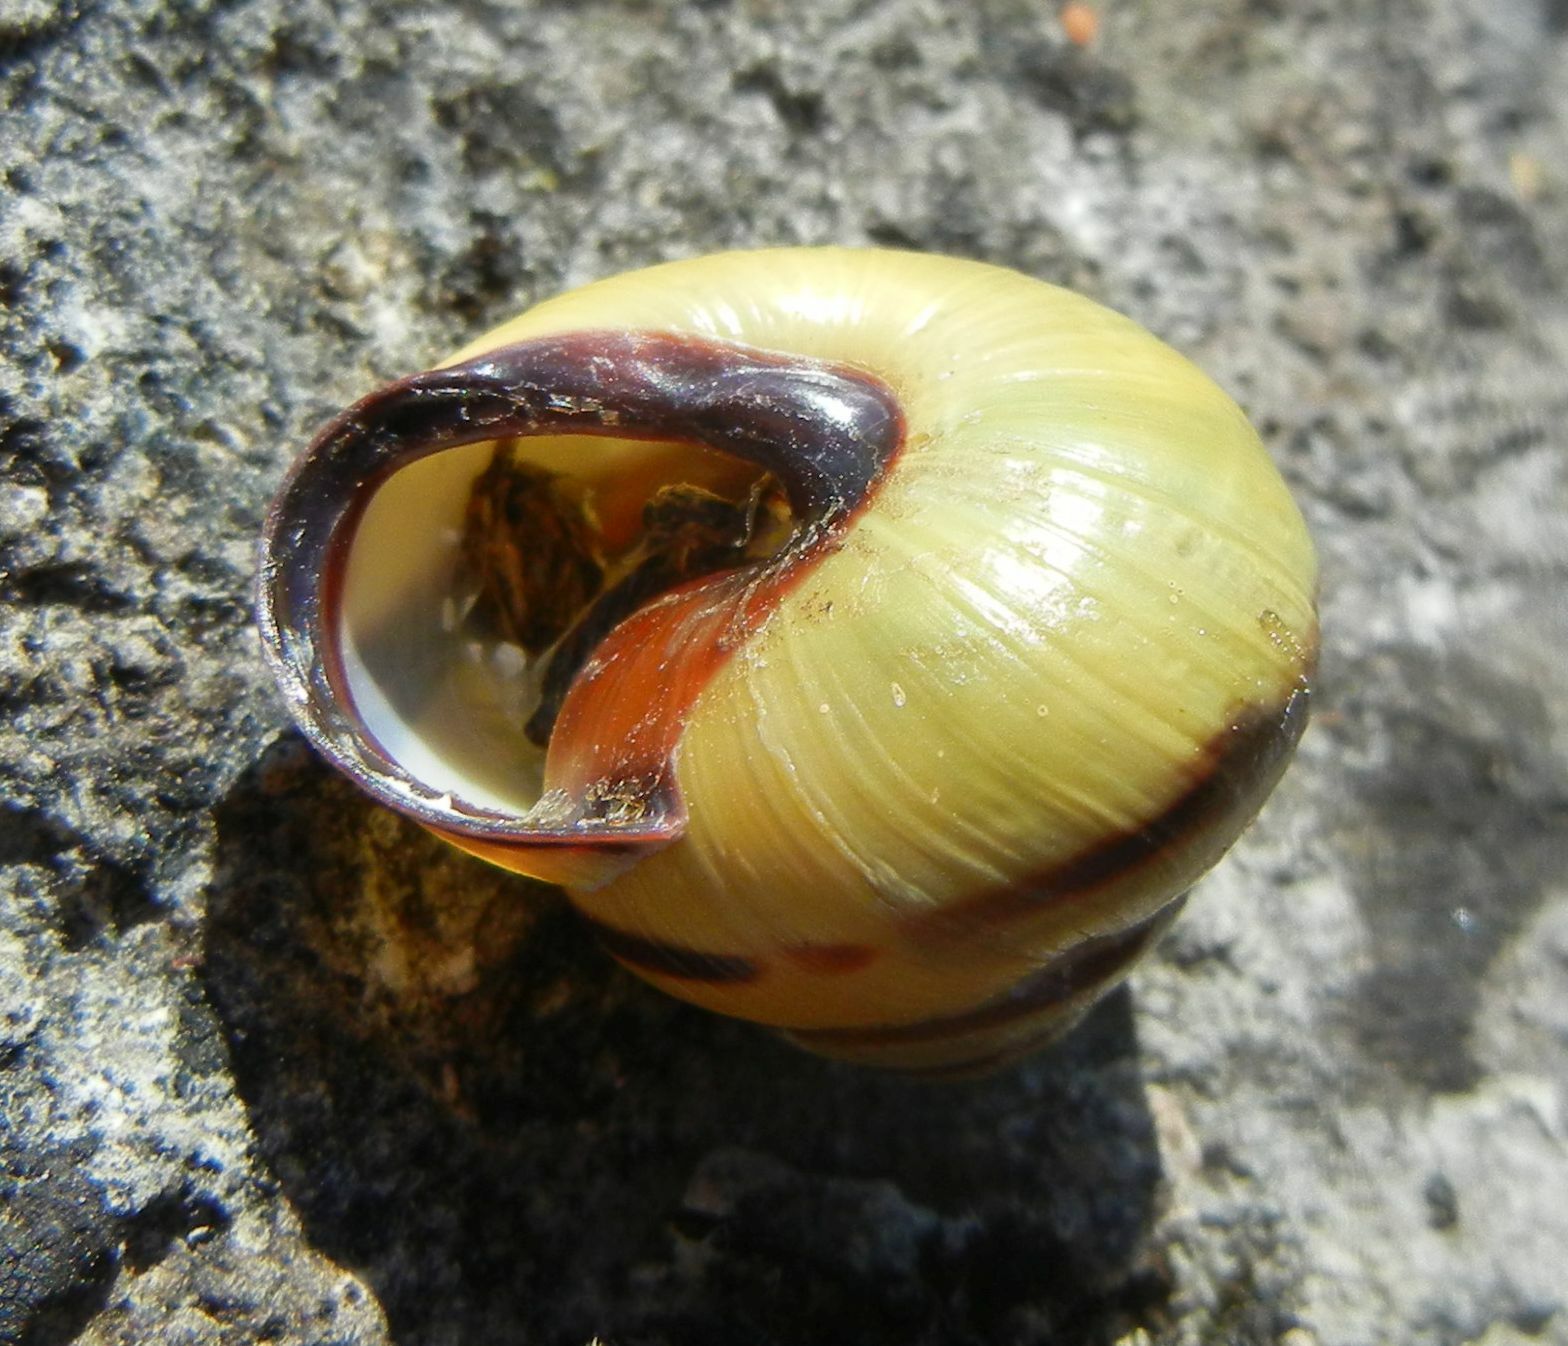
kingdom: Animalia
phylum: Mollusca
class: Gastropoda
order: Stylommatophora
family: Helicidae
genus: Cepaea
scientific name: Cepaea nemoralis
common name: Grovesnail
